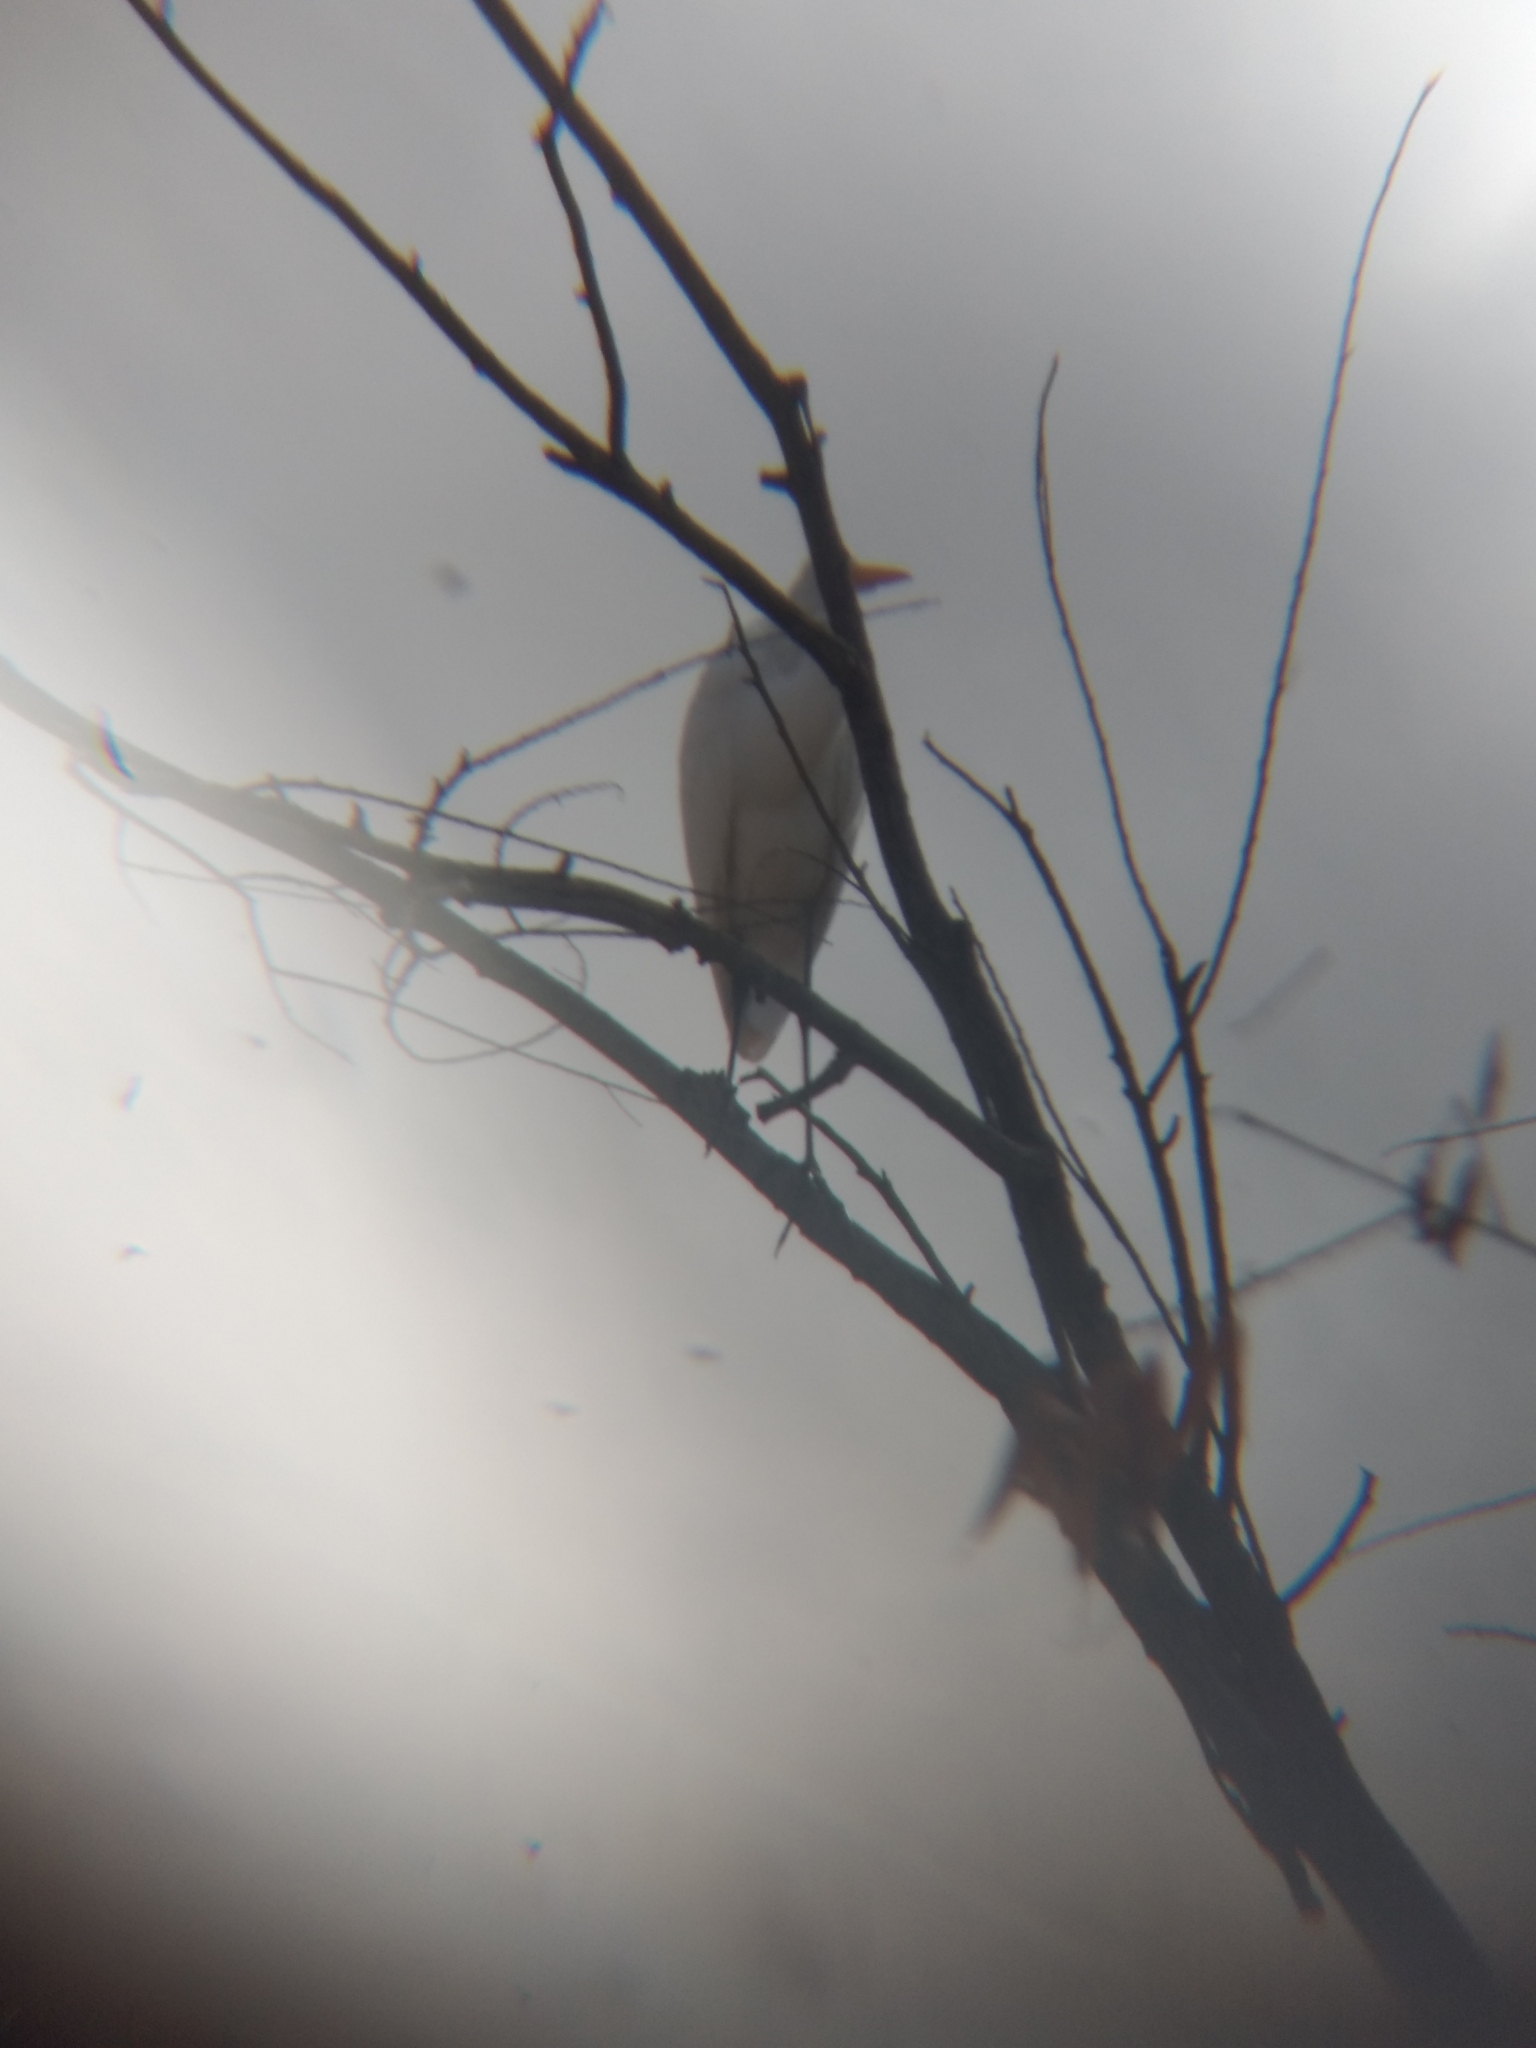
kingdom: Animalia
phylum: Chordata
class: Aves
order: Pelecaniformes
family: Ardeidae
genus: Ardea
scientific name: Ardea alba
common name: Great egret
